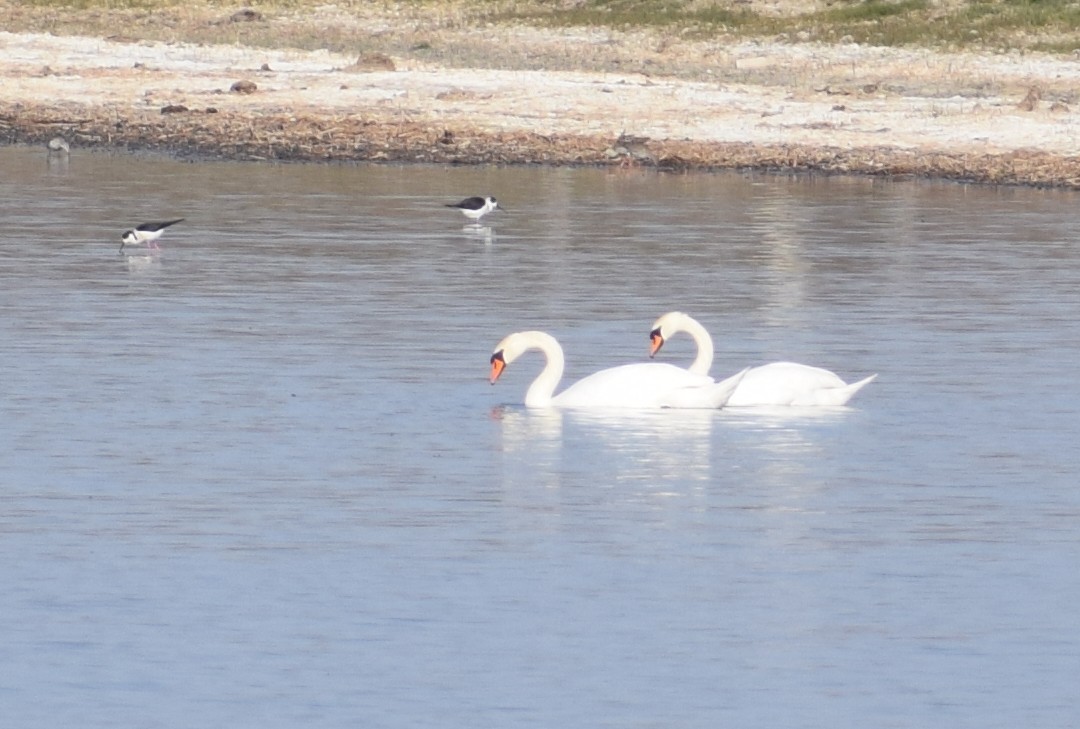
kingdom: Animalia
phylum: Chordata
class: Aves
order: Anseriformes
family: Anatidae
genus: Cygnus
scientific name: Cygnus olor
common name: Mute swan
